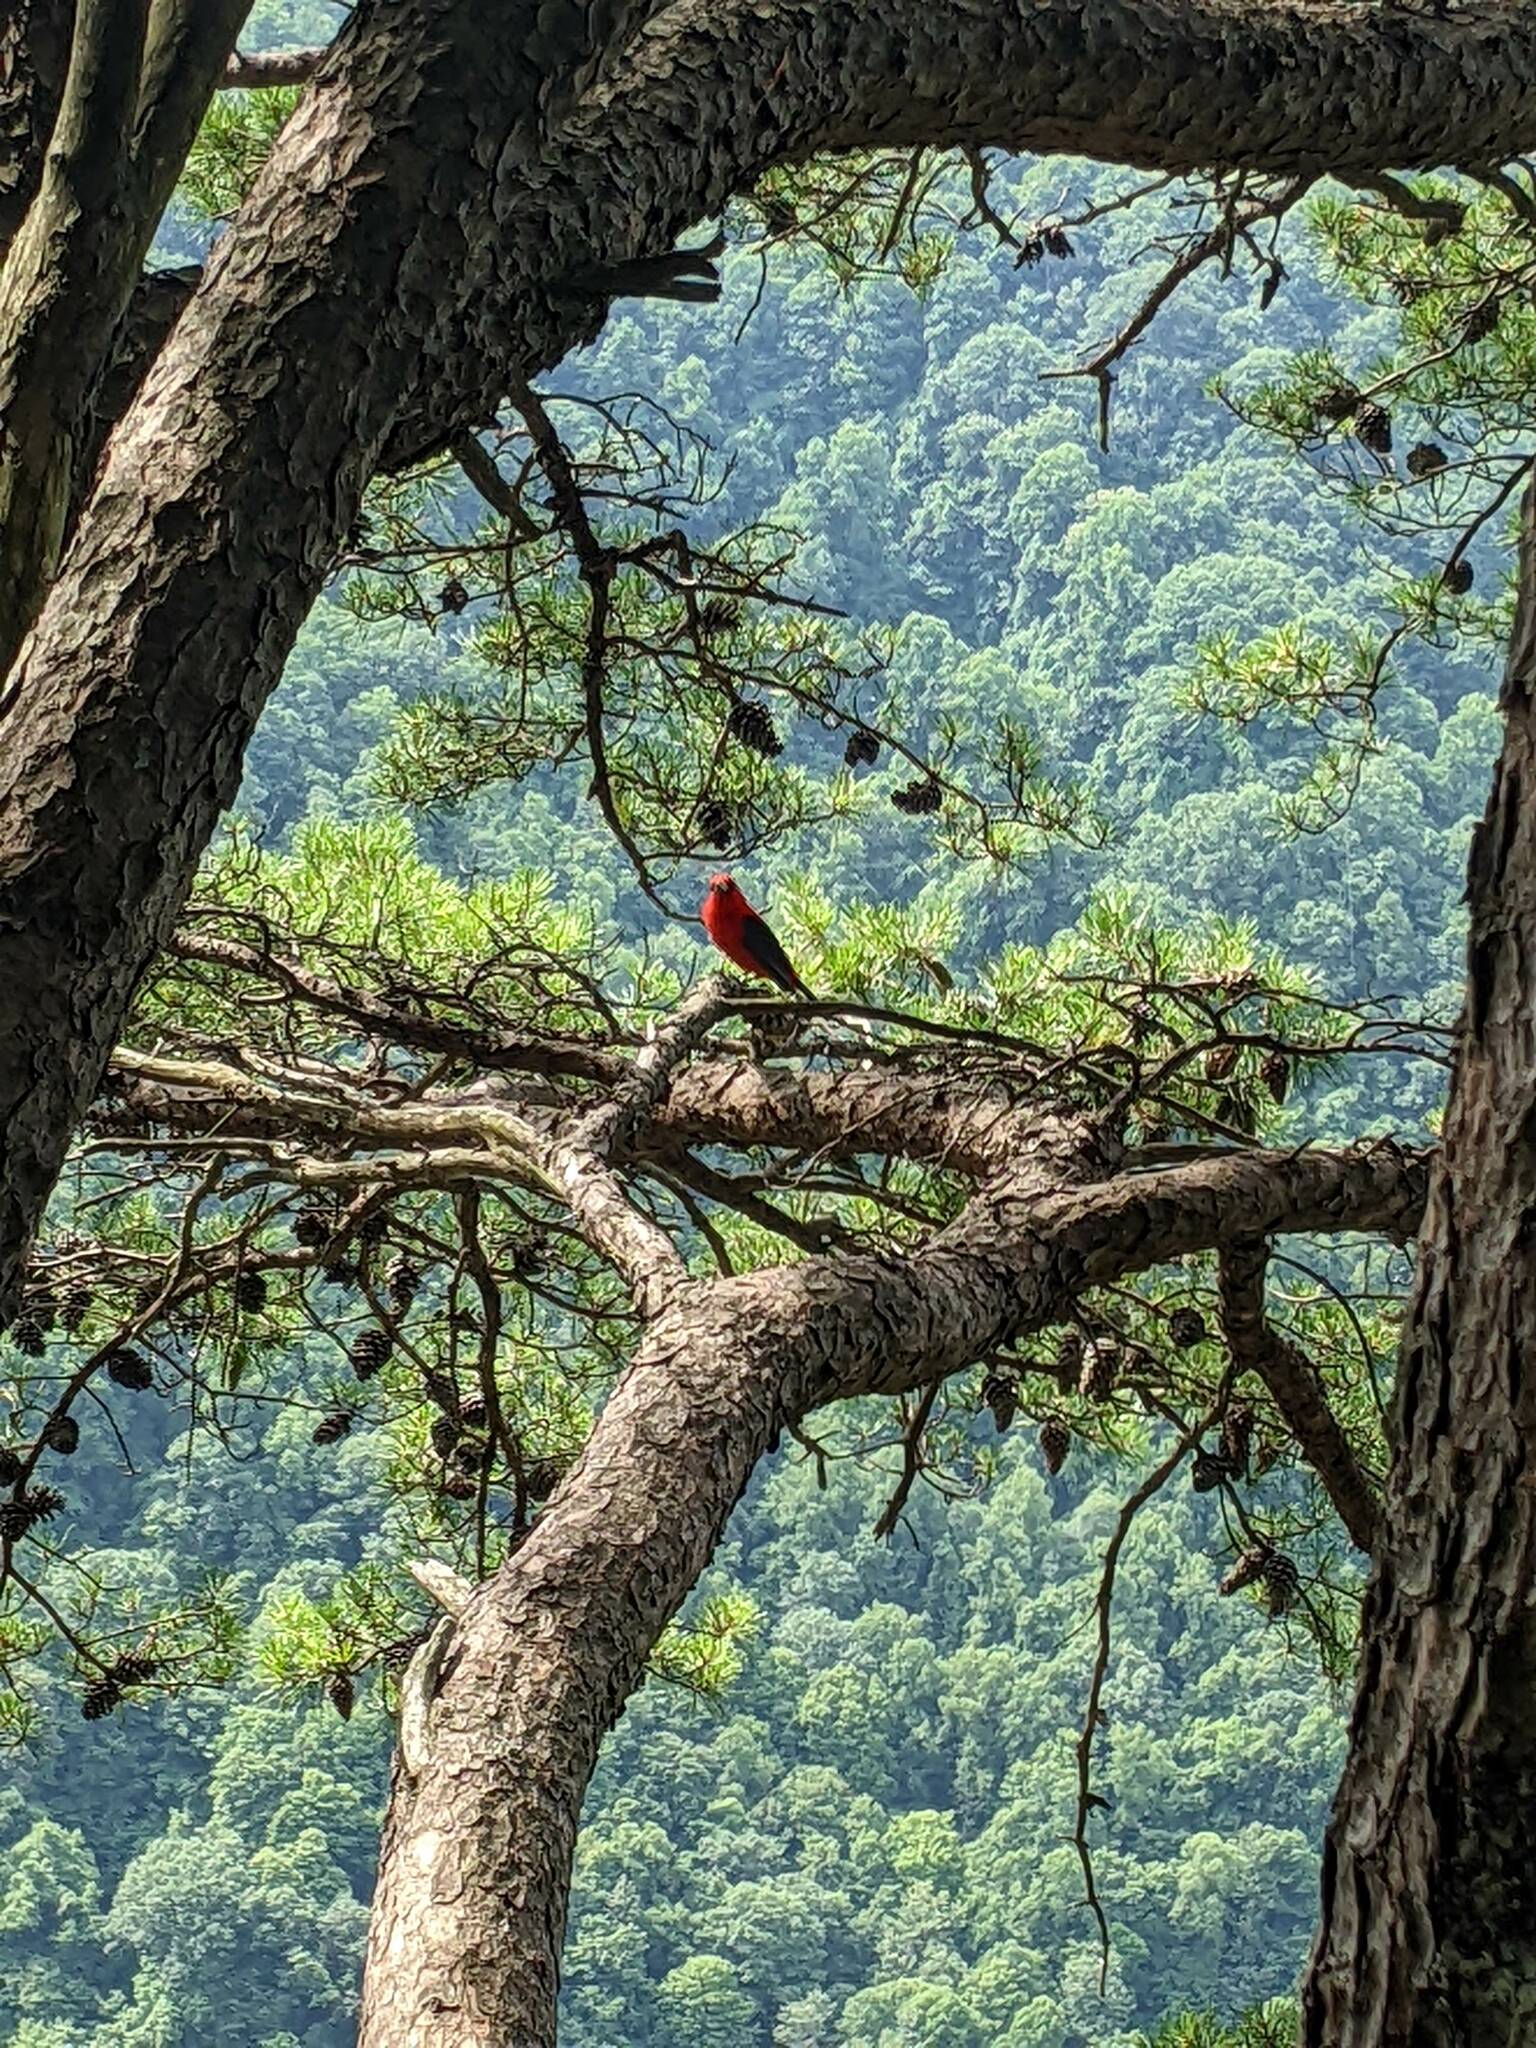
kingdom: Animalia
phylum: Chordata
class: Aves
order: Passeriformes
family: Cardinalidae
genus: Piranga
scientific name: Piranga olivacea
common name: Scarlet tanager
